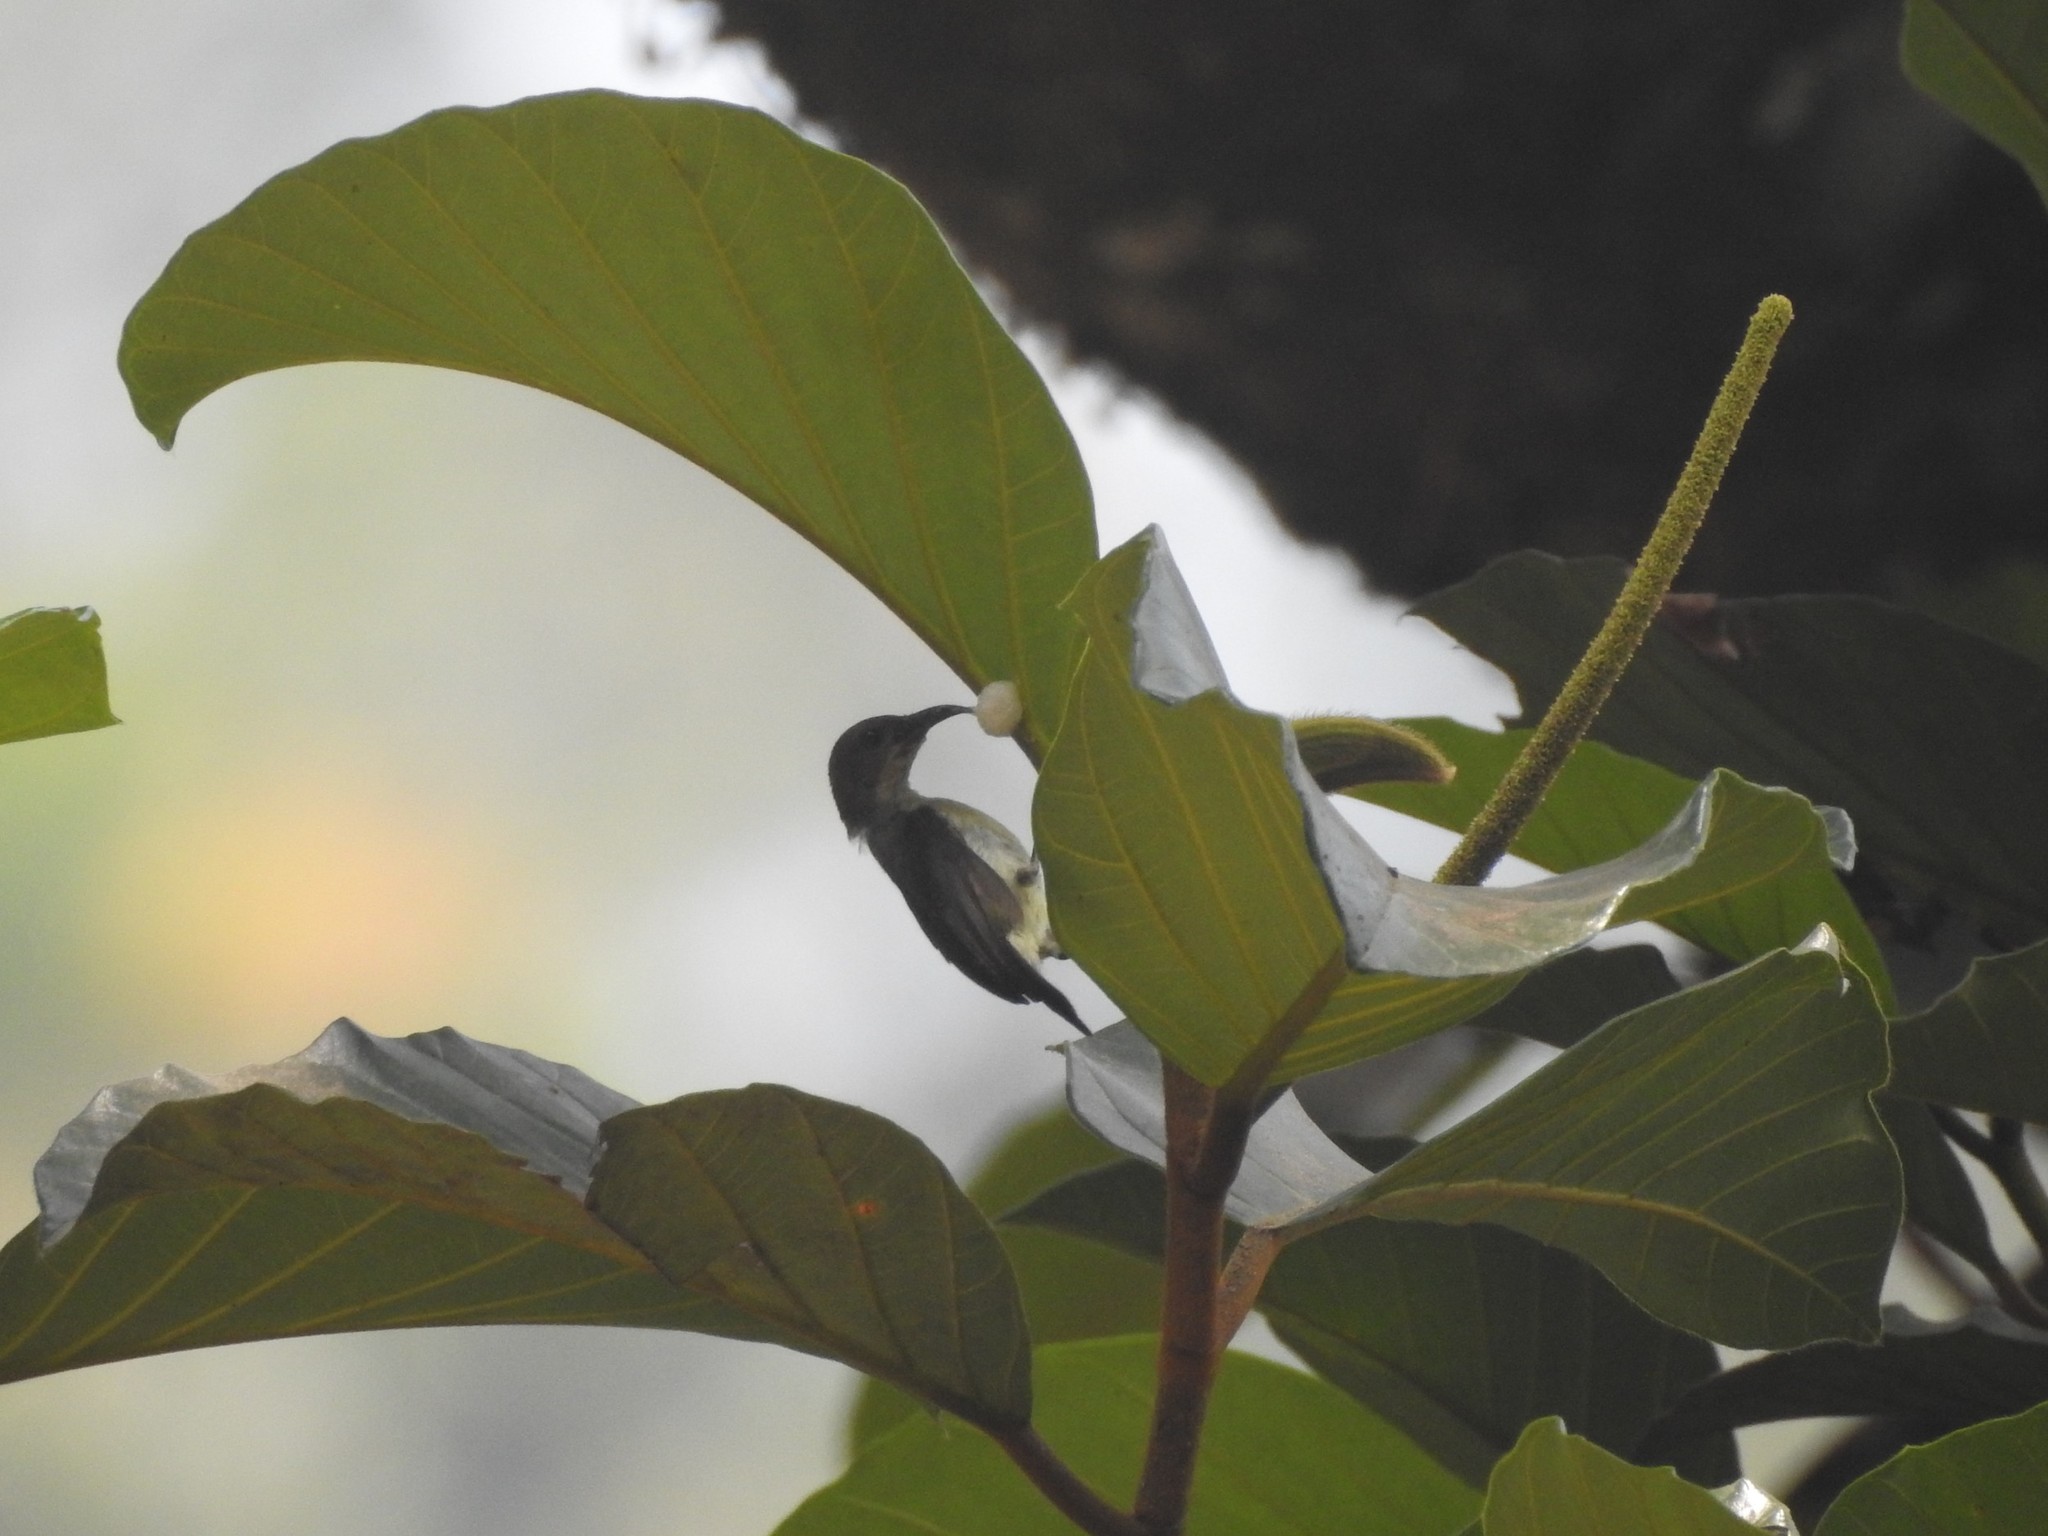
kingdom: Animalia
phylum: Chordata
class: Aves
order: Passeriformes
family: Nectariniidae
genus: Leptocoma
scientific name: Leptocoma zeylonica
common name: Purple-rumped sunbird
